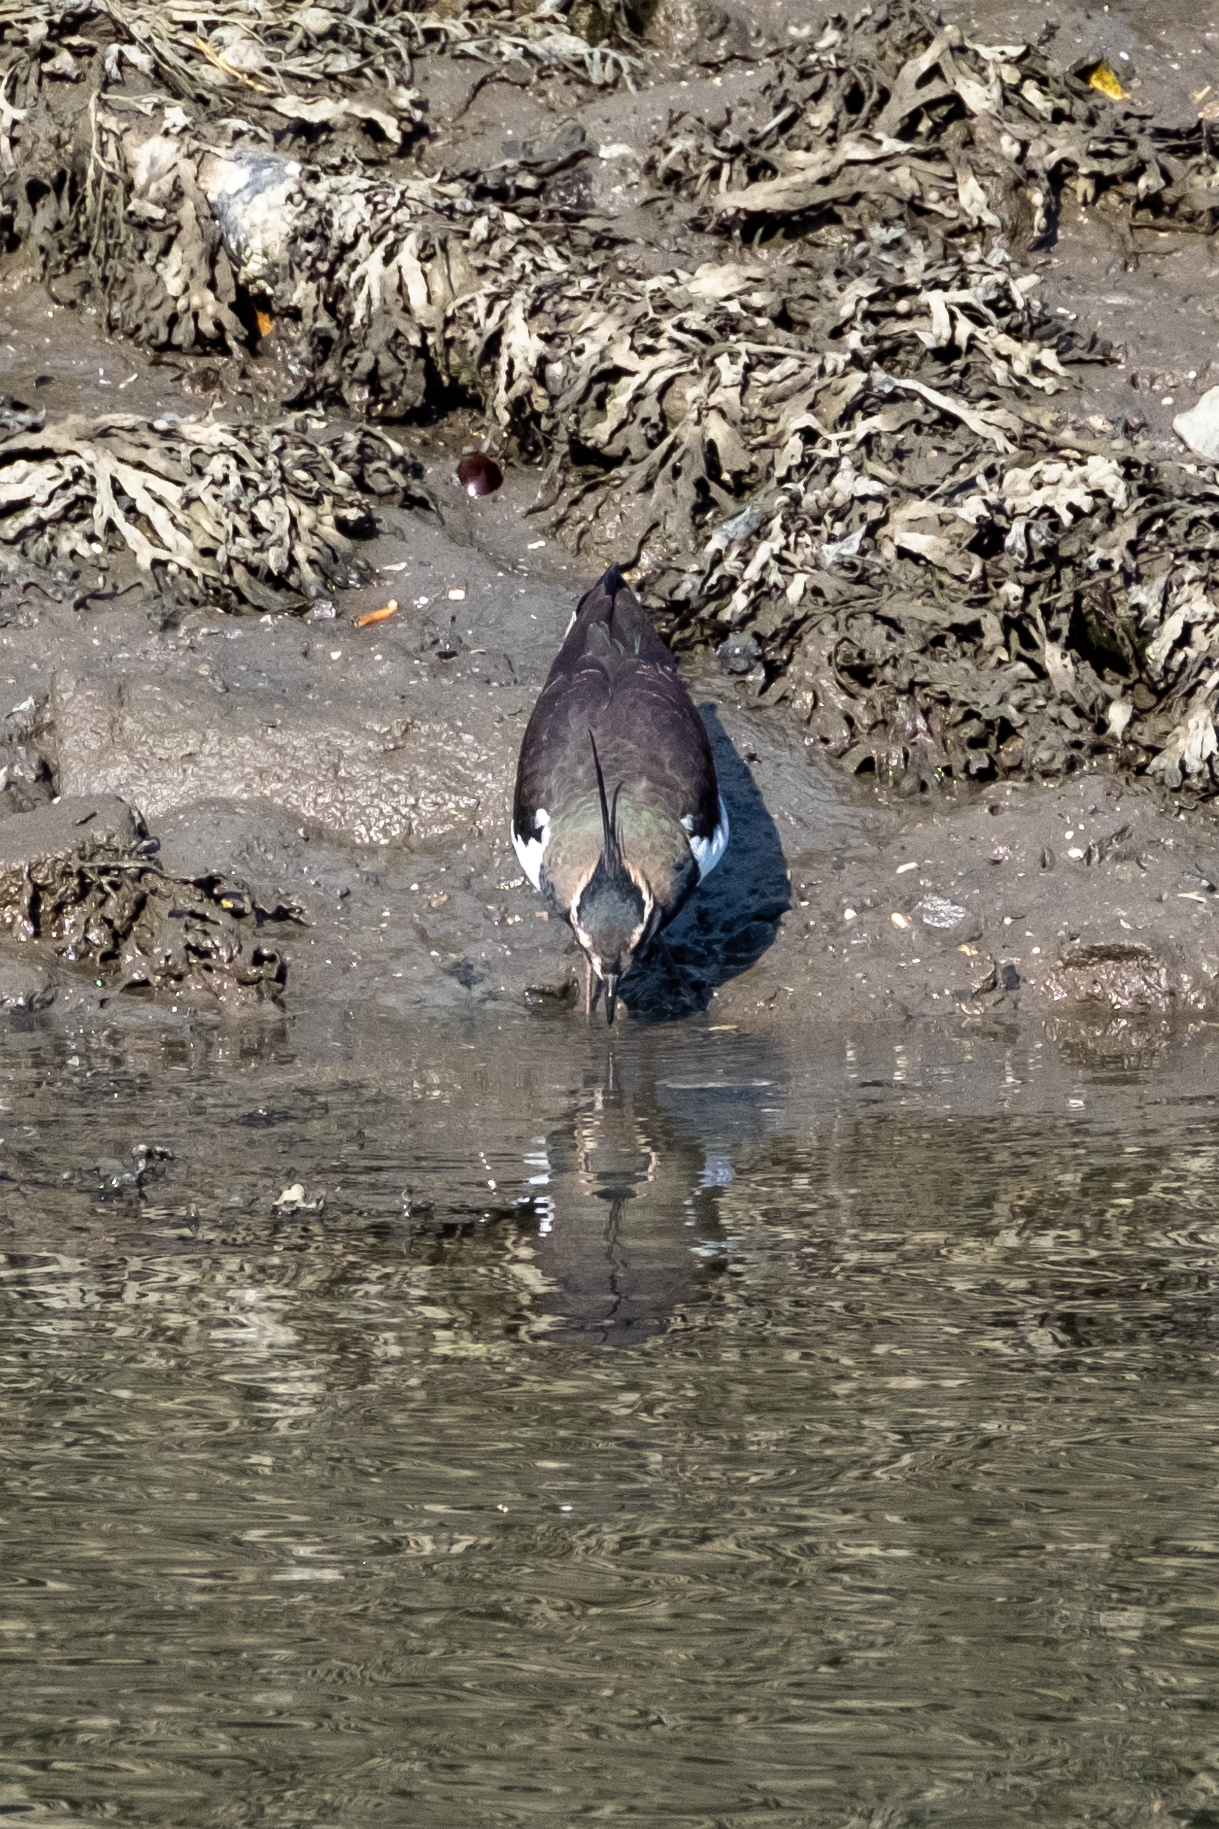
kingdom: Animalia
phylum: Chordata
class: Aves
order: Charadriiformes
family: Charadriidae
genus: Vanellus
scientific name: Vanellus vanellus
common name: Northern lapwing
